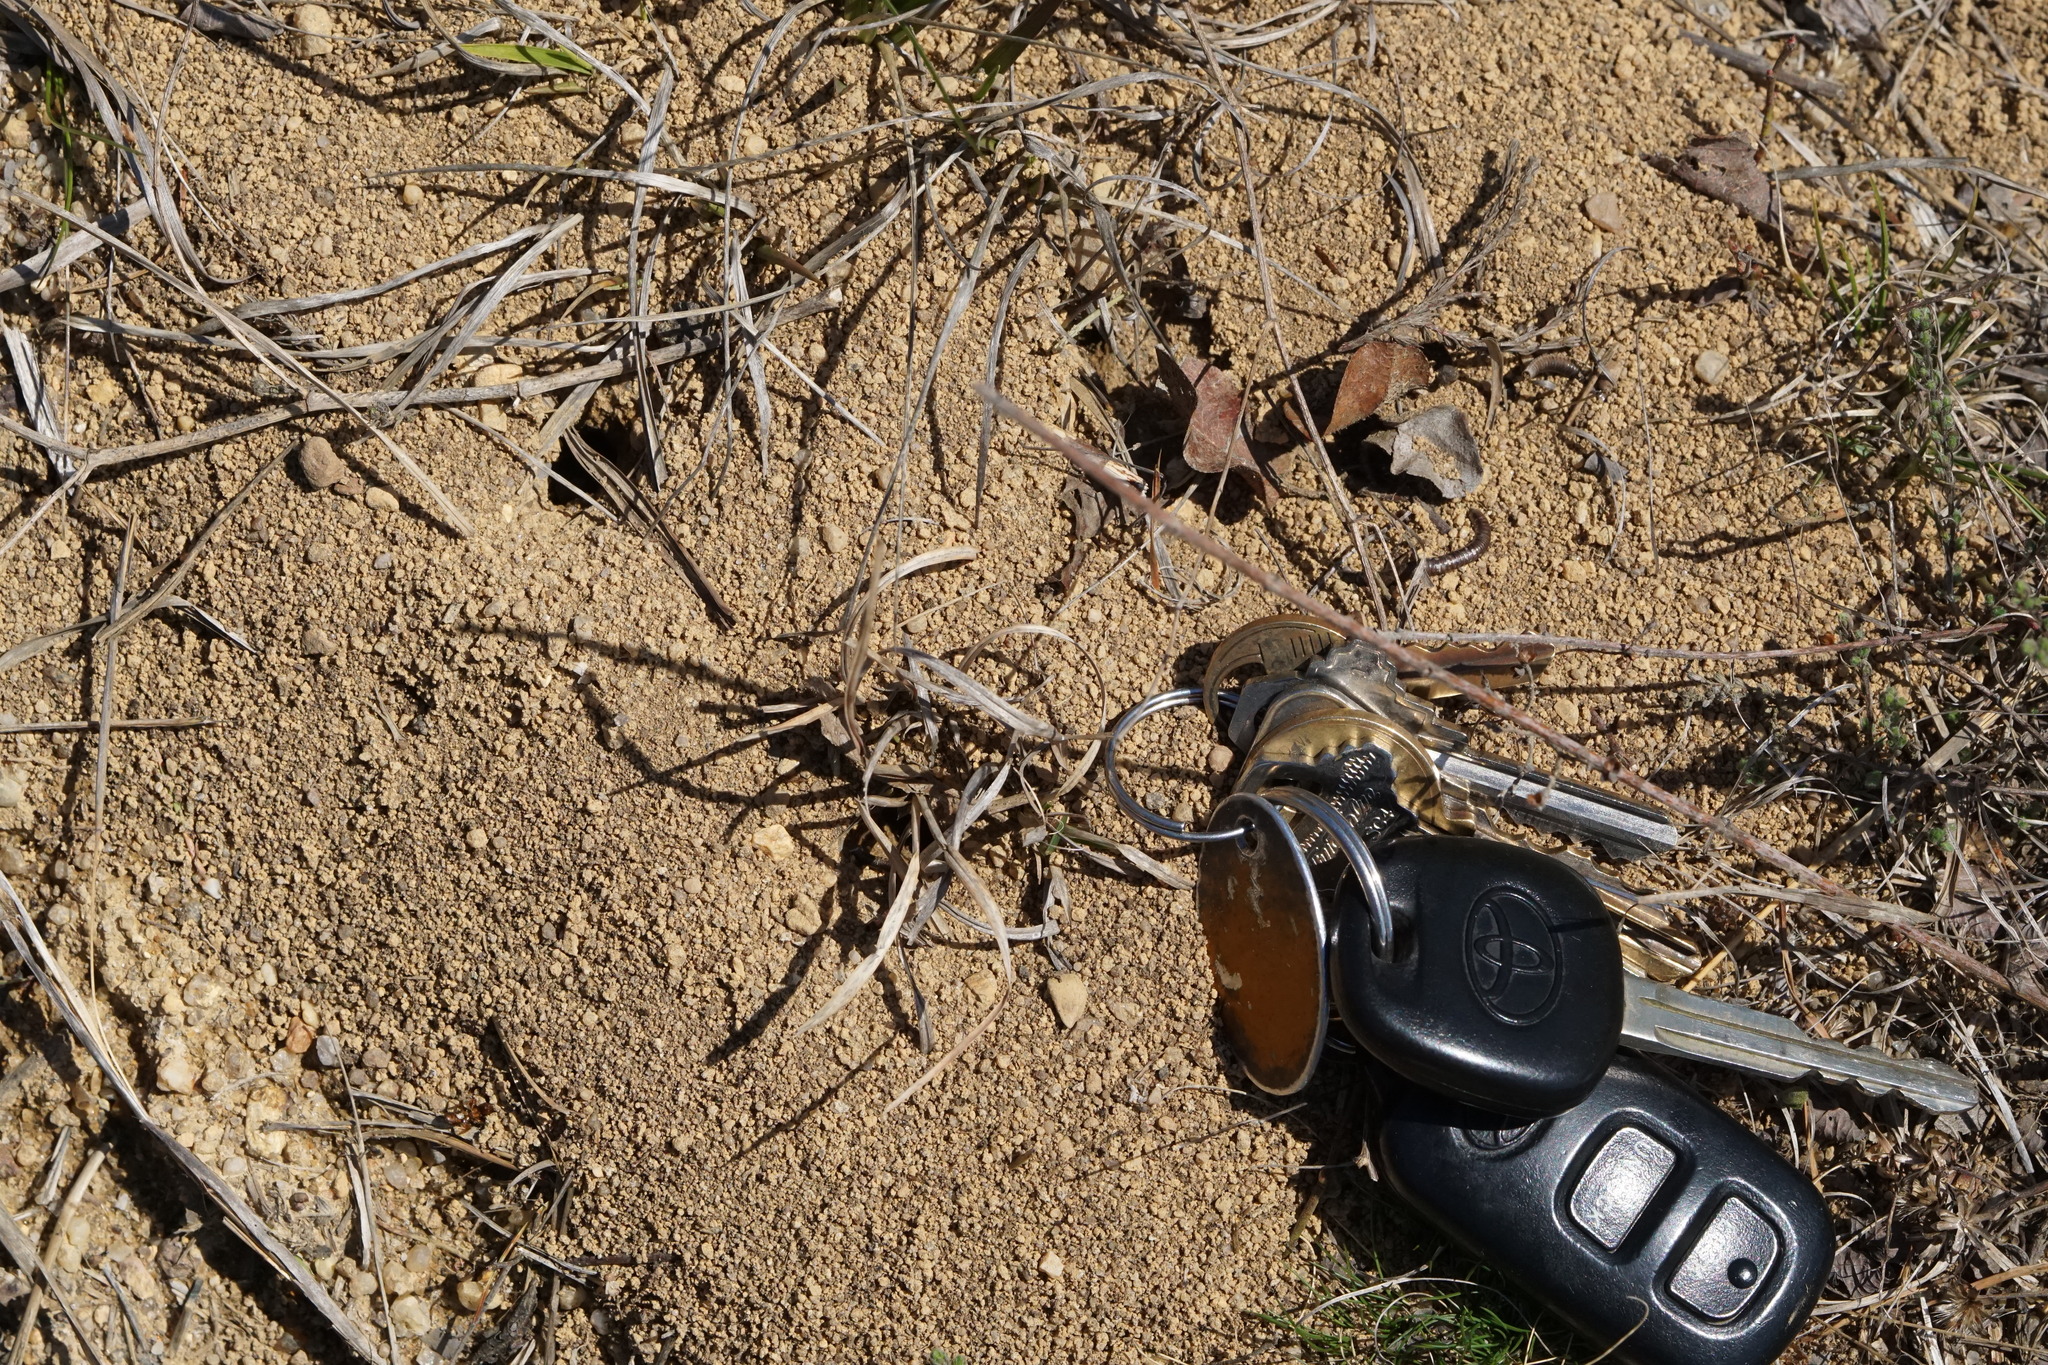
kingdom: Animalia
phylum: Arthropoda
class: Insecta
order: Hymenoptera
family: Formicidae
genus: Formica
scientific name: Formica incerta
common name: Uncertain field ant
